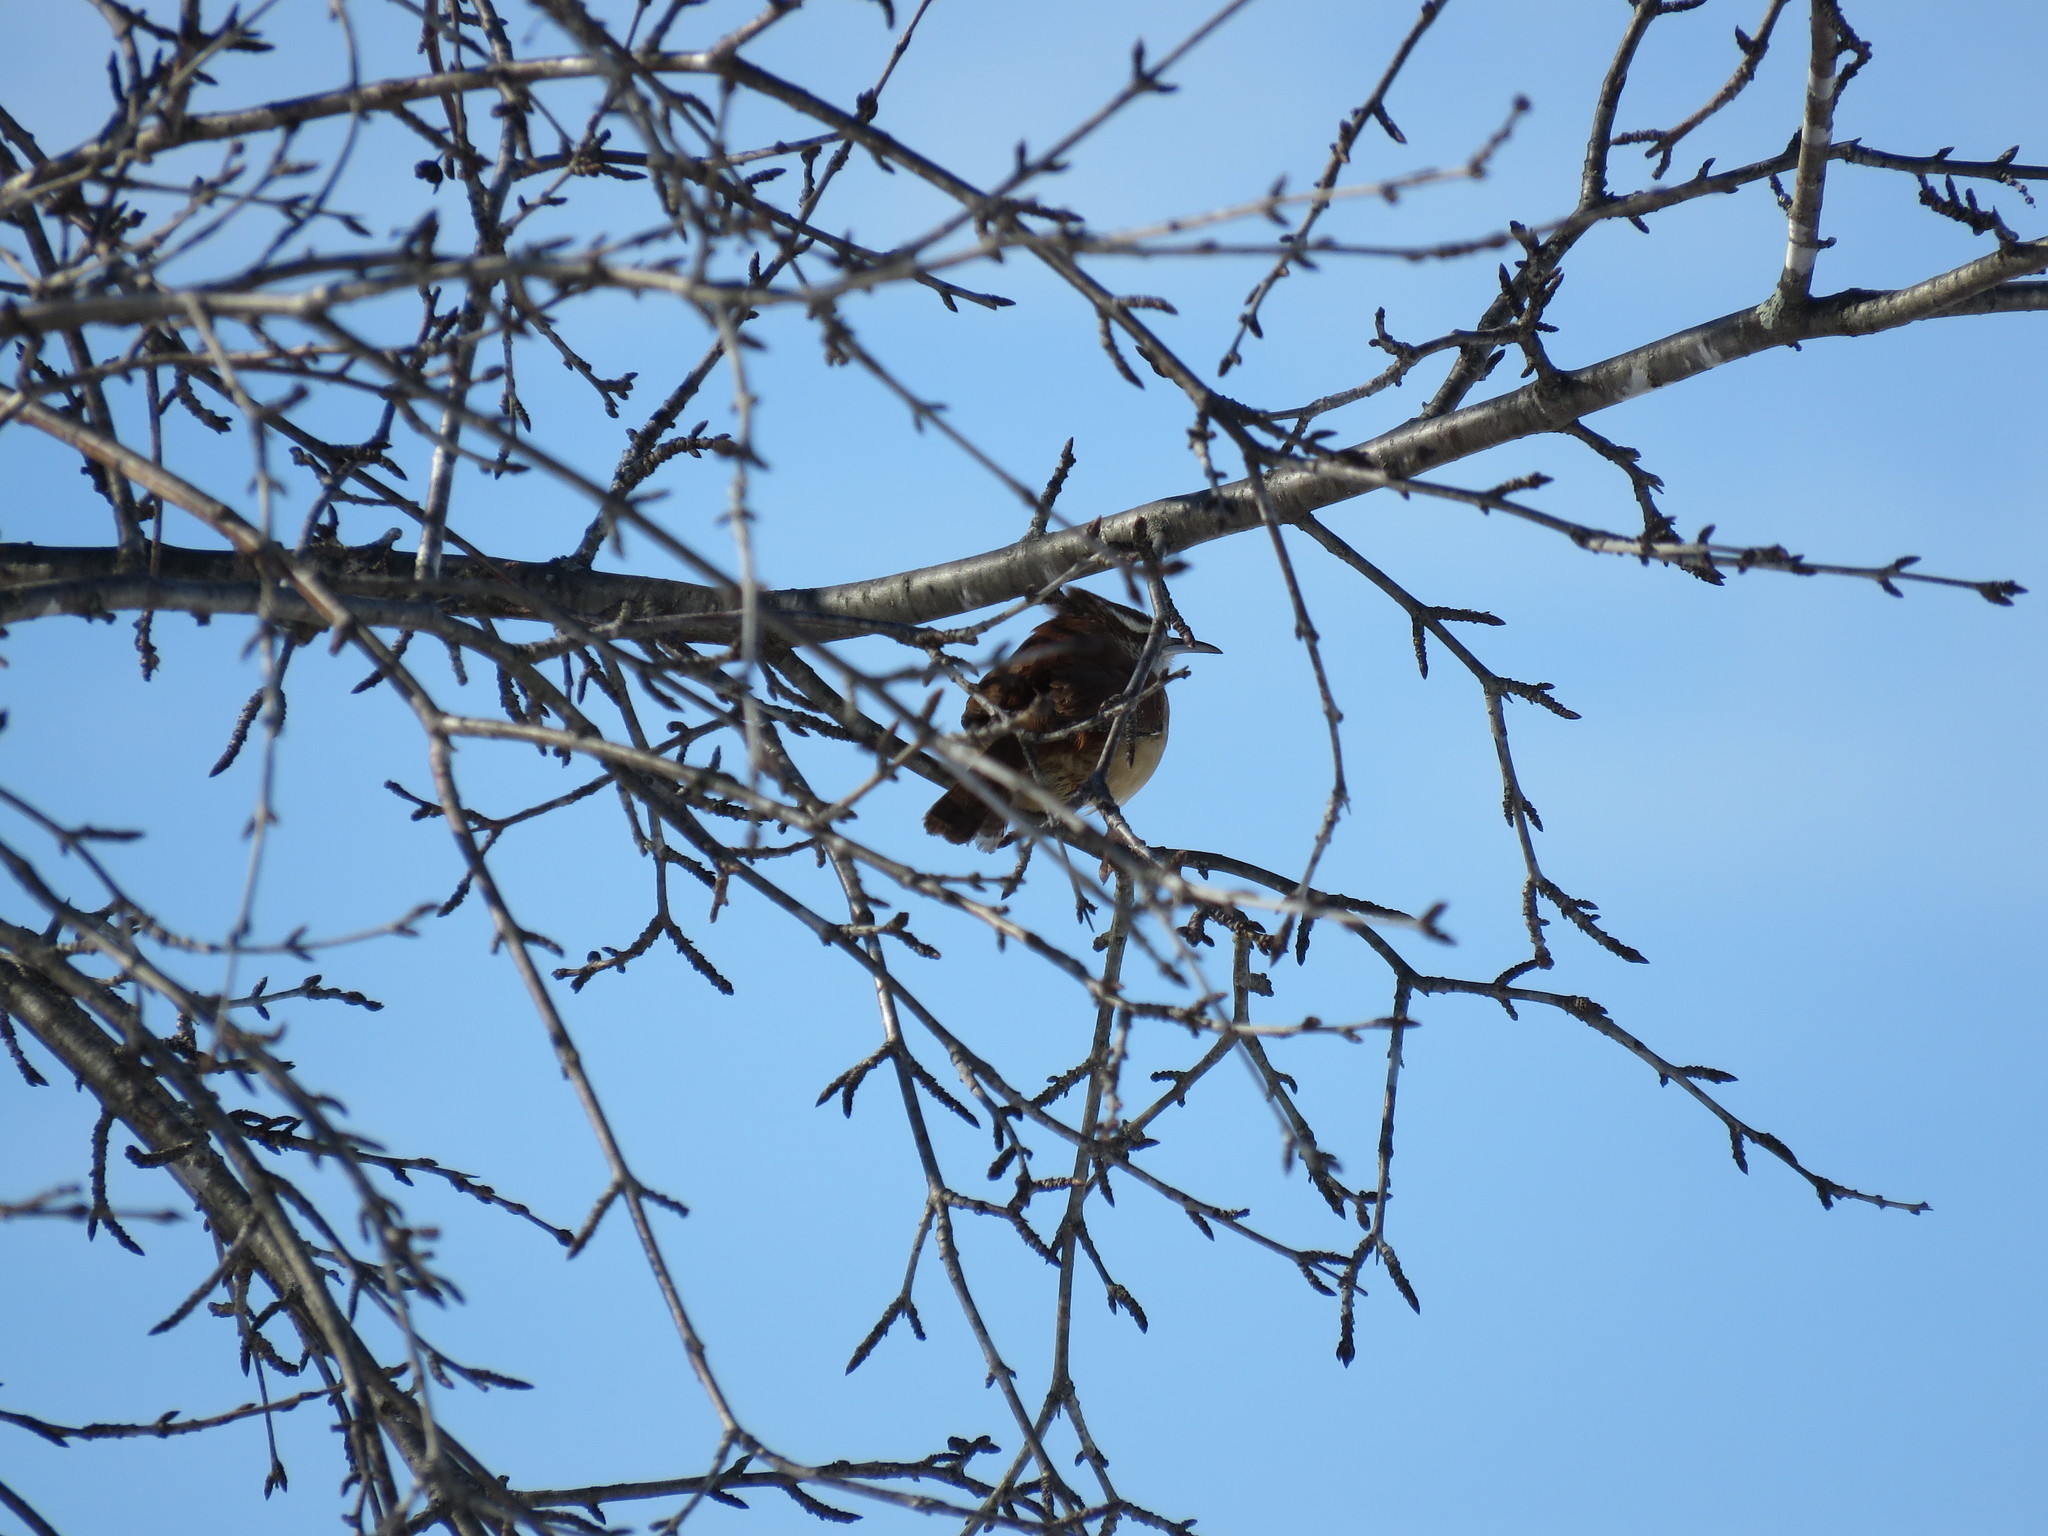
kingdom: Animalia
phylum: Chordata
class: Aves
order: Passeriformes
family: Troglodytidae
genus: Thryothorus
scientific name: Thryothorus ludovicianus
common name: Carolina wren
